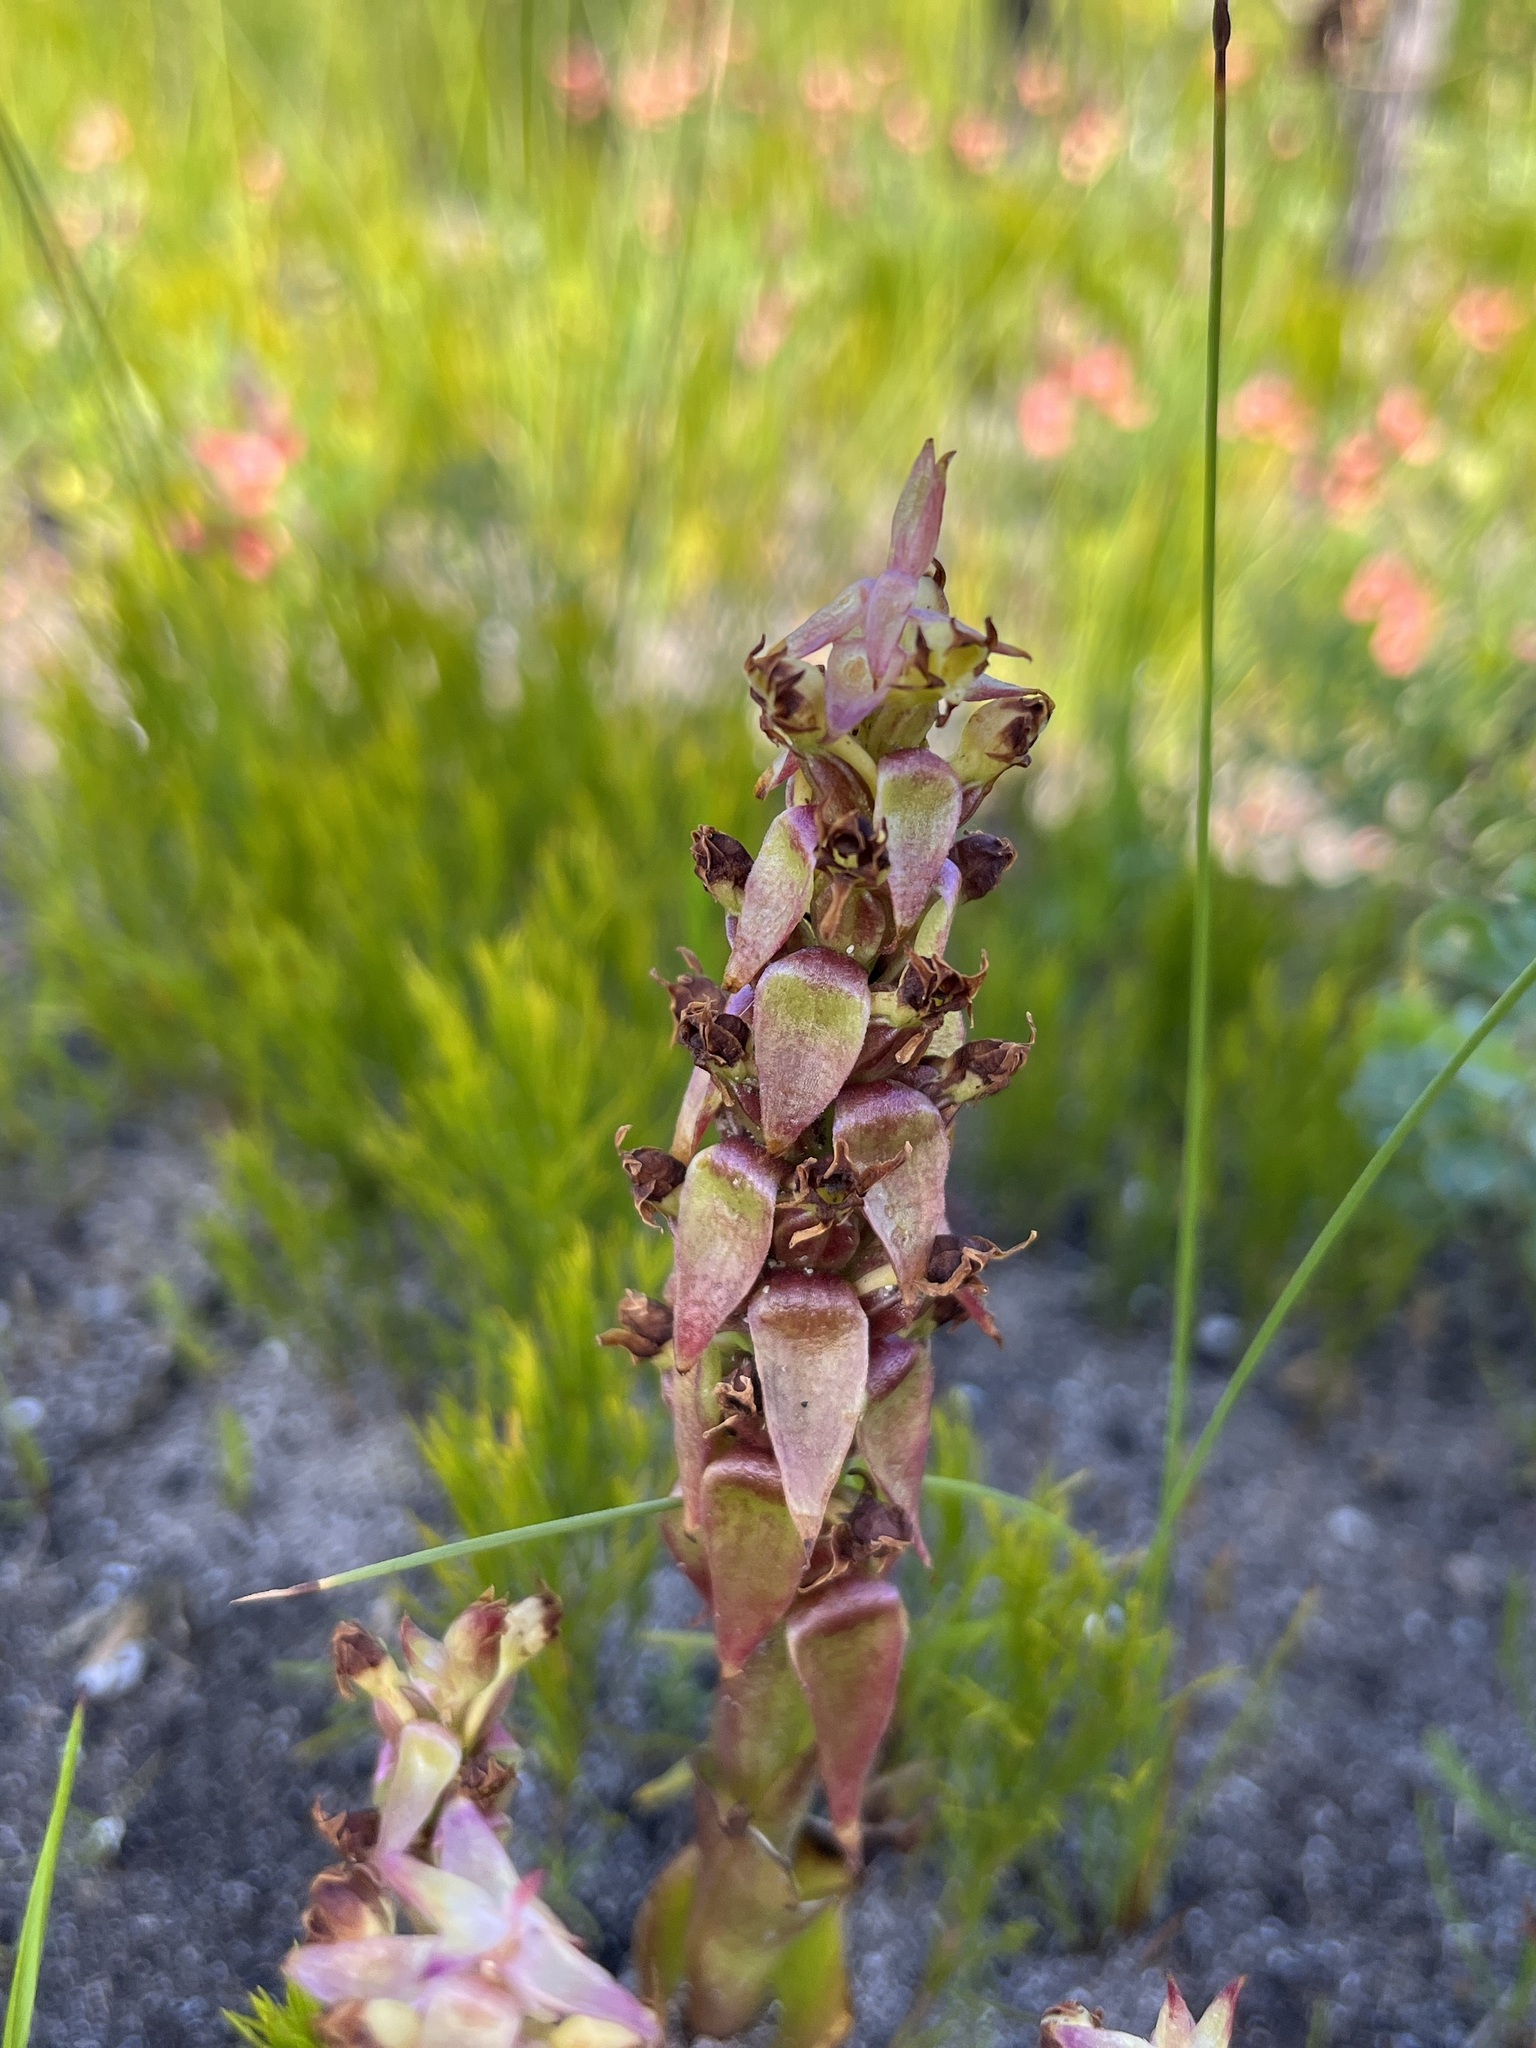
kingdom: Plantae
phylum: Tracheophyta
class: Liliopsida
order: Asparagales
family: Orchidaceae
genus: Satyrium
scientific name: Satyrium emarcidum
